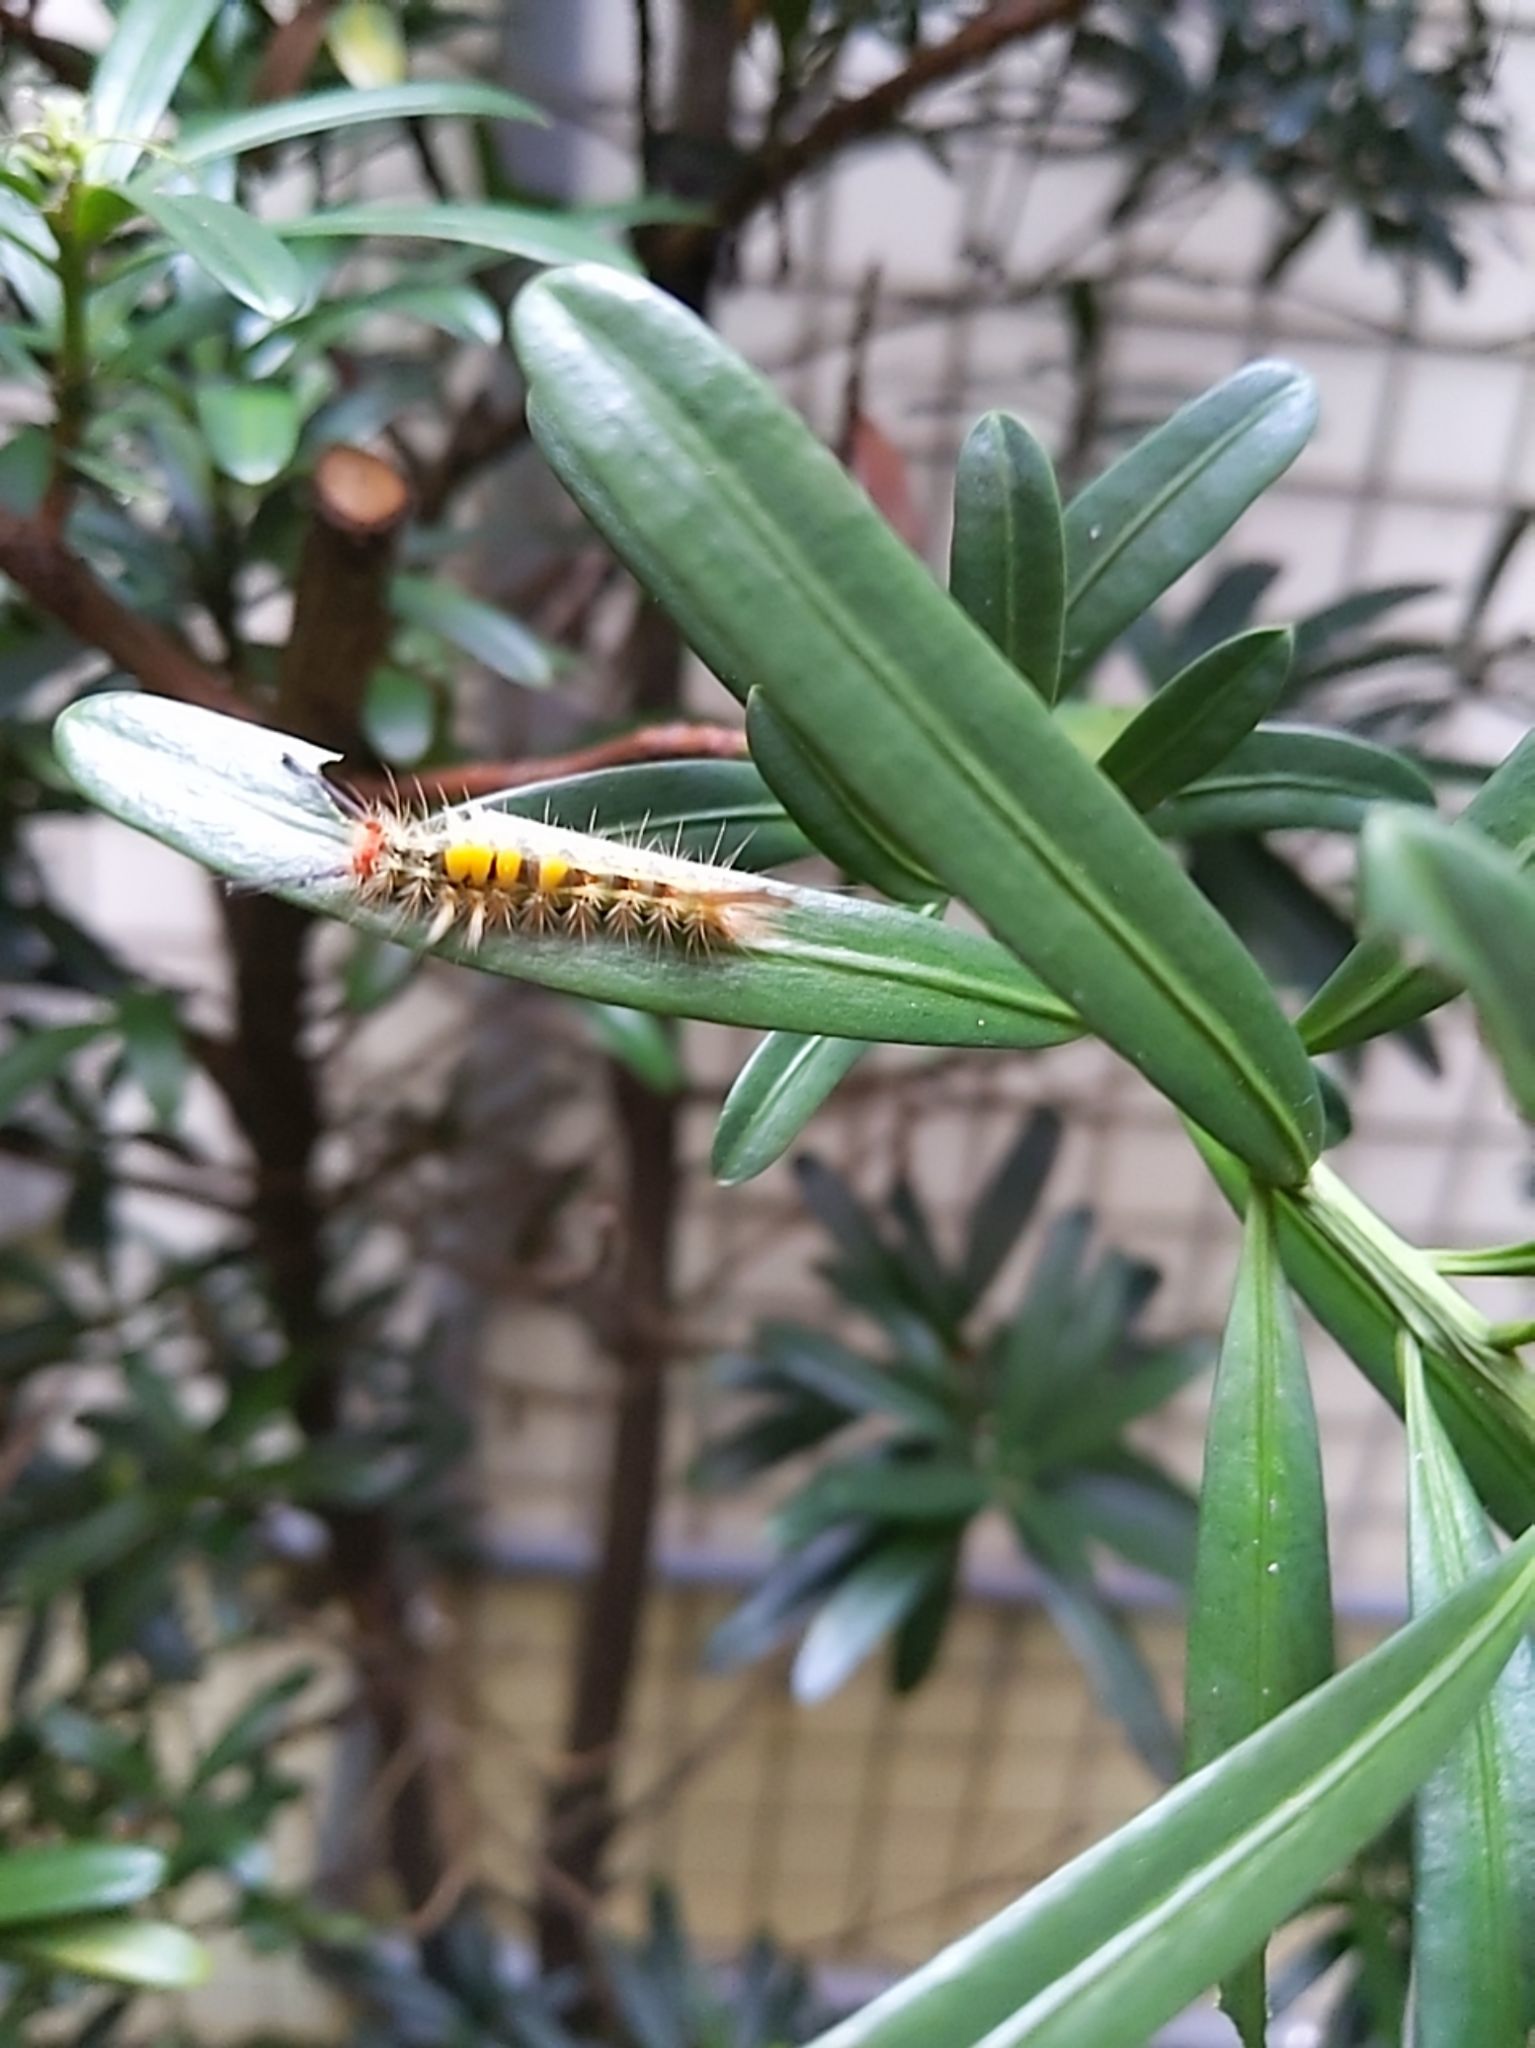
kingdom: Animalia
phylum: Arthropoda
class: Insecta
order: Lepidoptera
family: Erebidae
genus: Orgyia
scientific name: Orgyia postica
